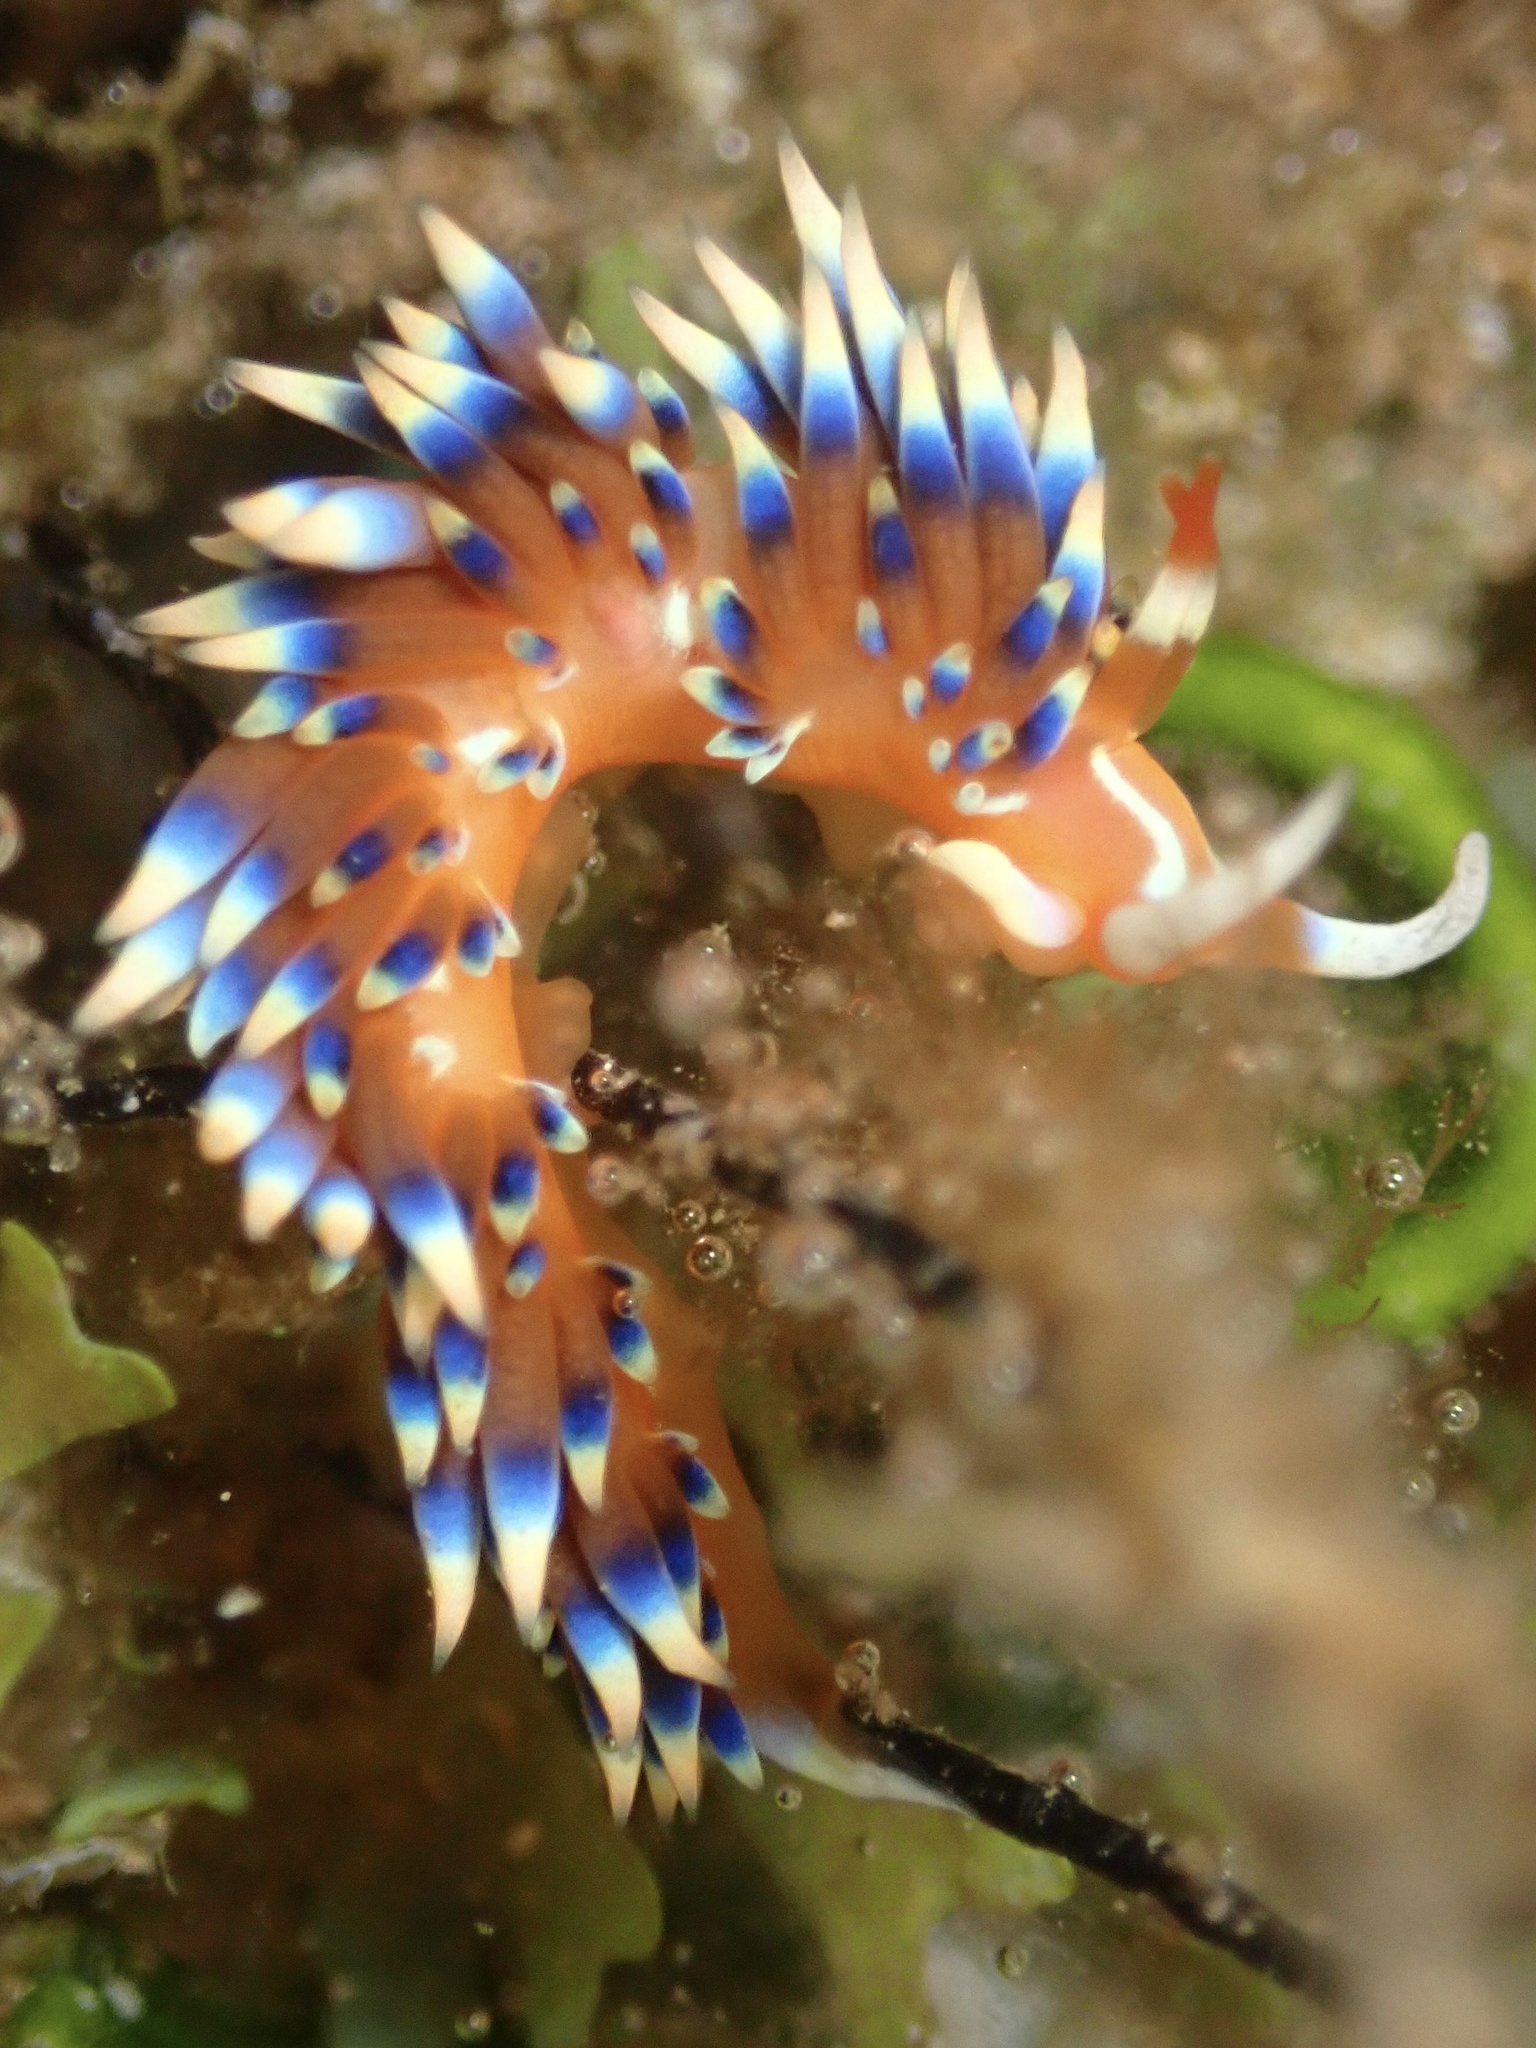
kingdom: Animalia
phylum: Mollusca
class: Gastropoda
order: Nudibranchia
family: Facelinidae
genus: Caloria
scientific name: Caloria indica
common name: Sea slug
